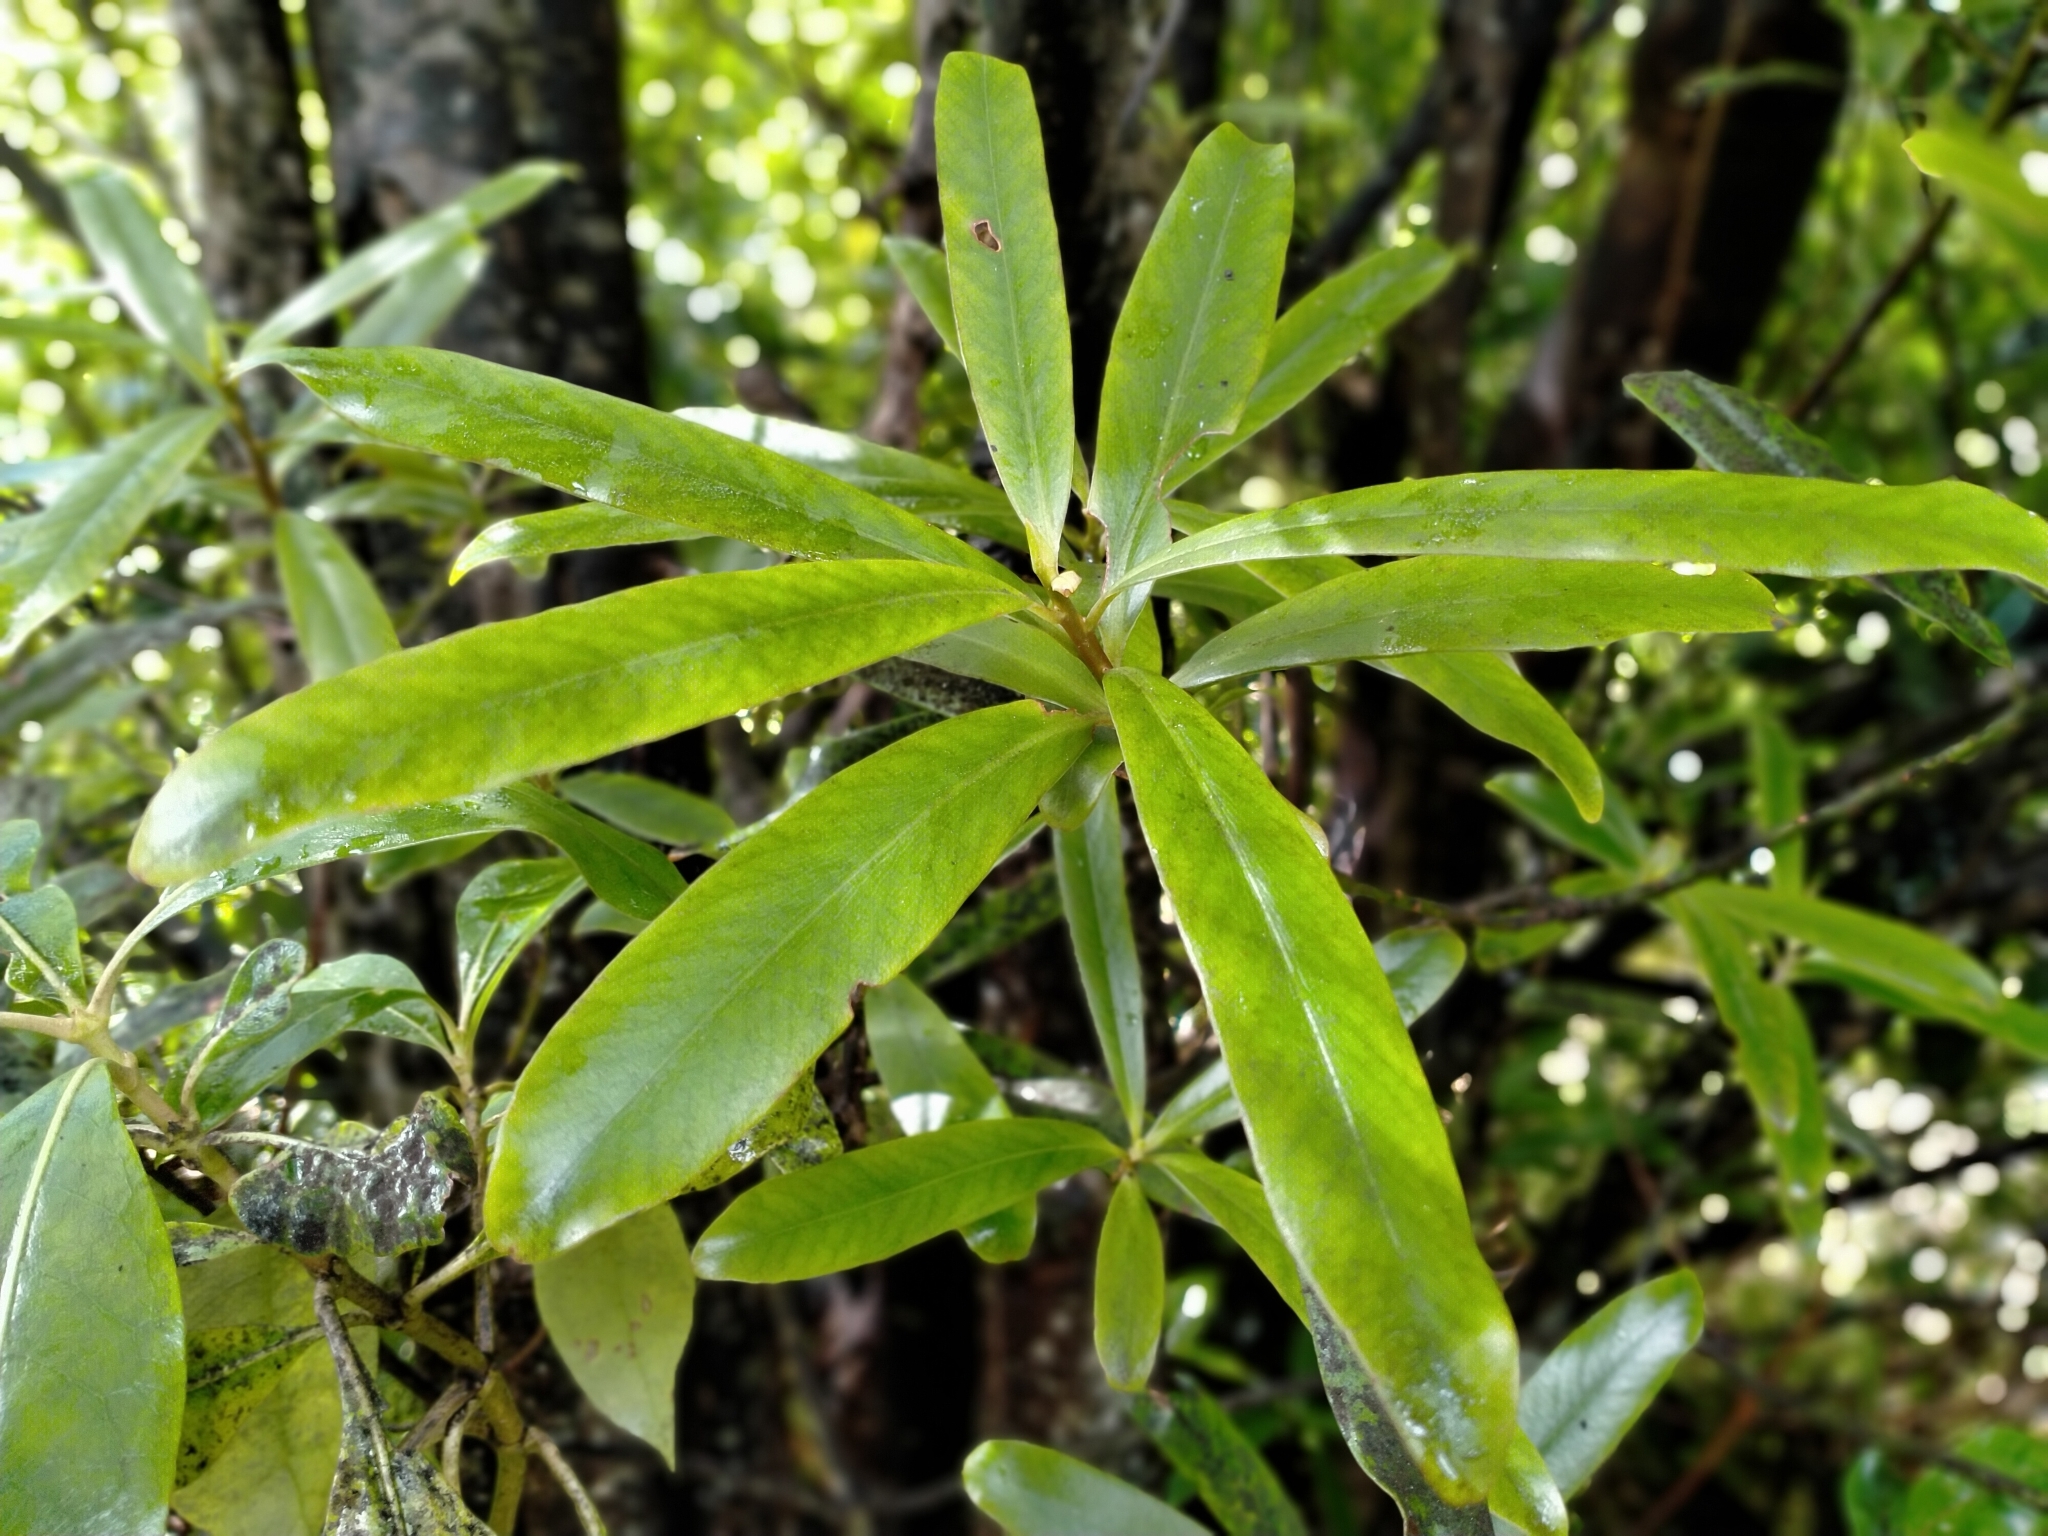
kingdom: Plantae
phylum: Tracheophyta
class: Magnoliopsida
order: Ericales
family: Primulaceae
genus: Myrsine
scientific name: Myrsine salicina
